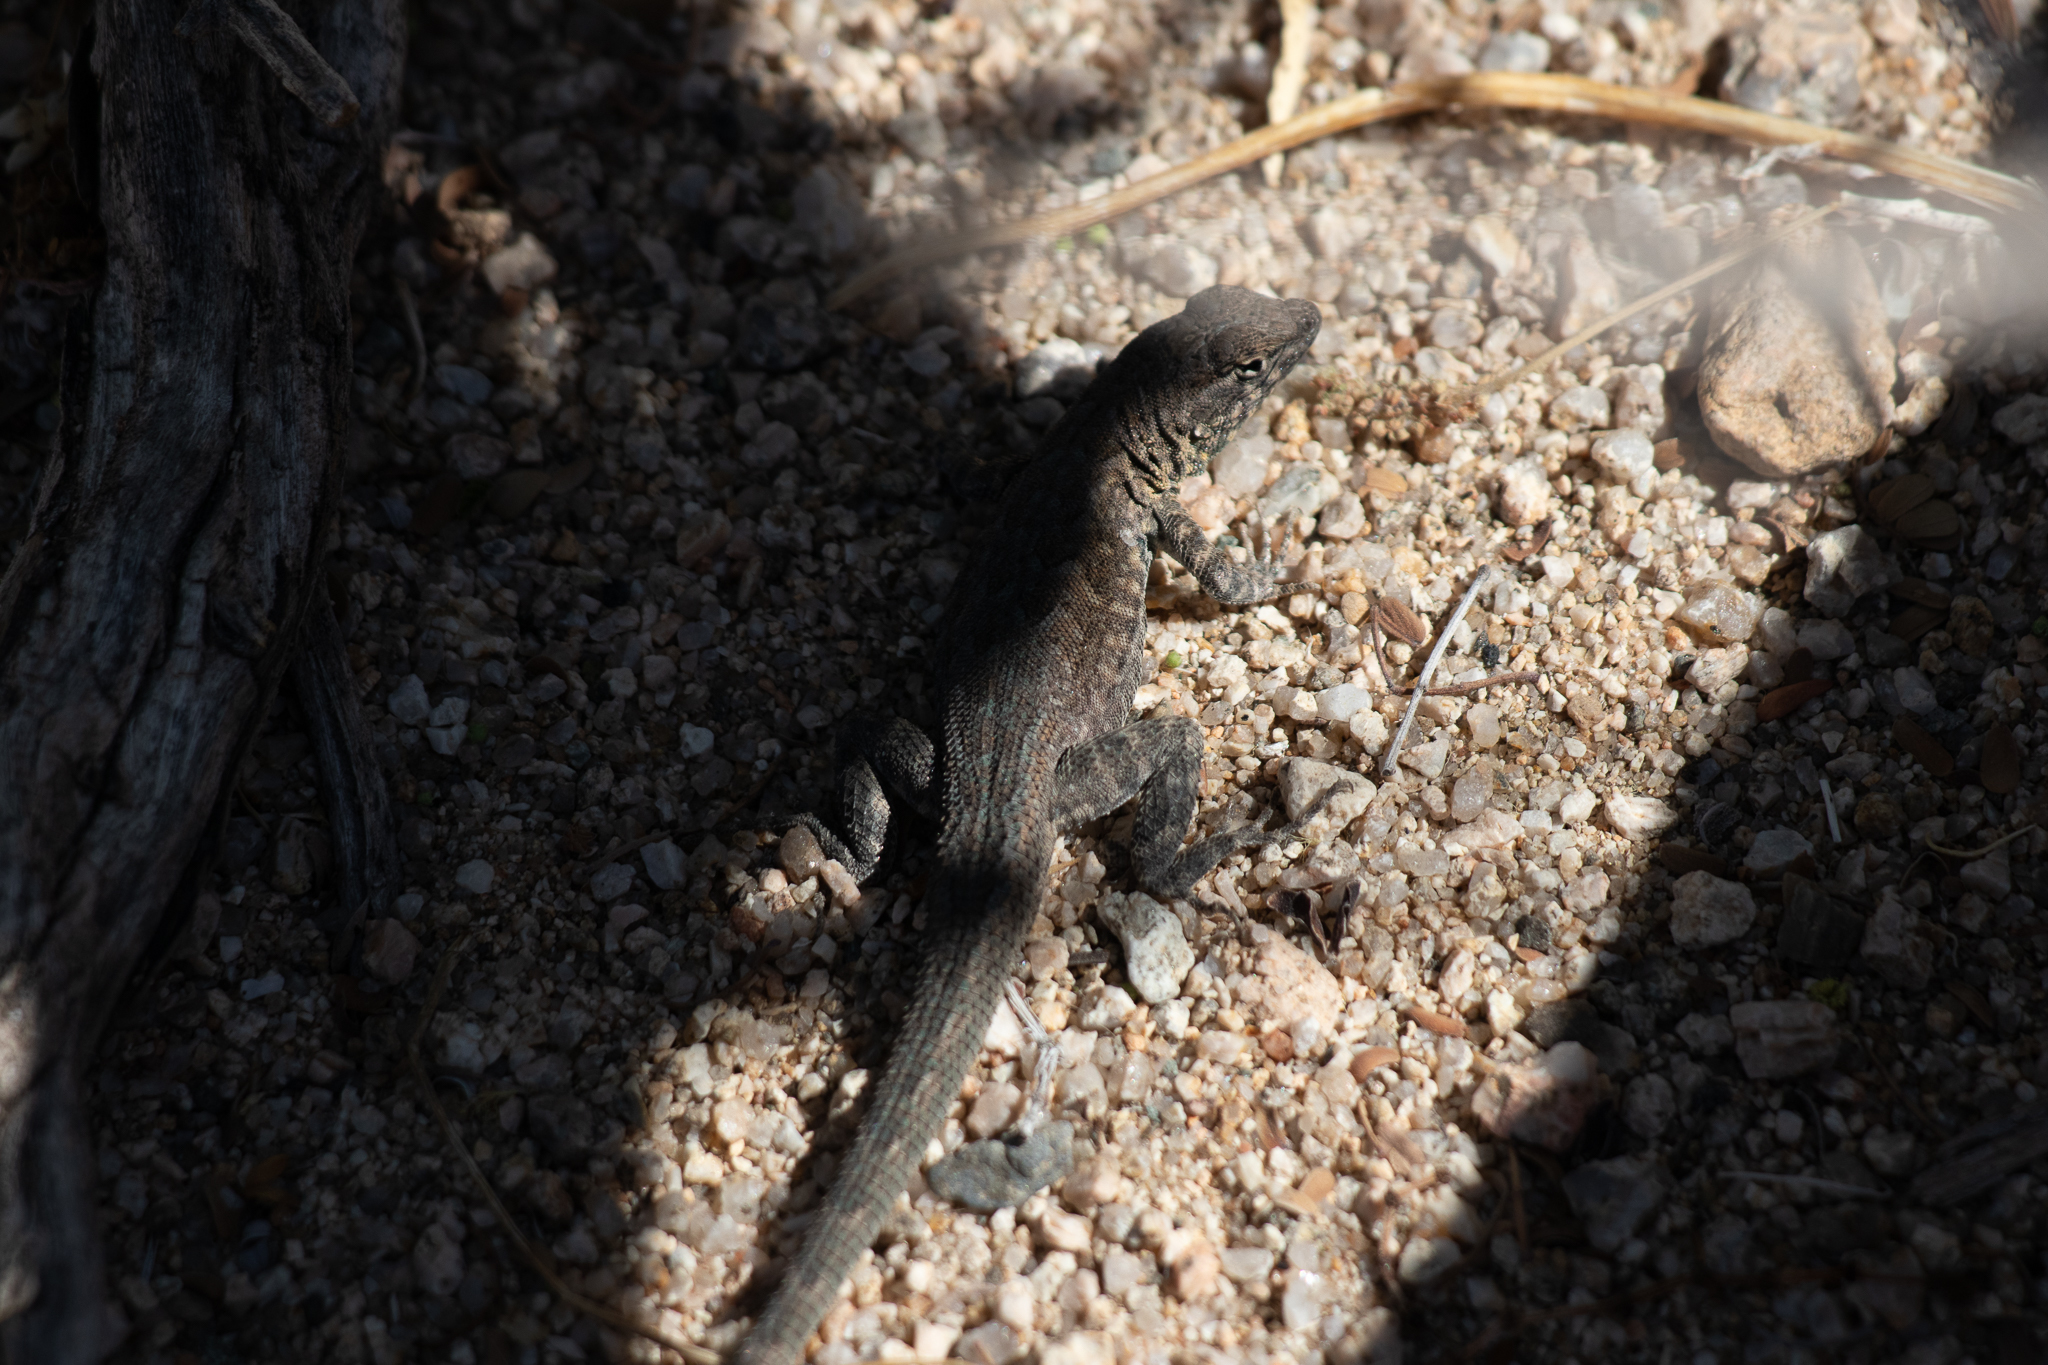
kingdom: Animalia
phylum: Chordata
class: Squamata
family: Phrynosomatidae
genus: Uta
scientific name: Uta stansburiana
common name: Side-blotched lizard
